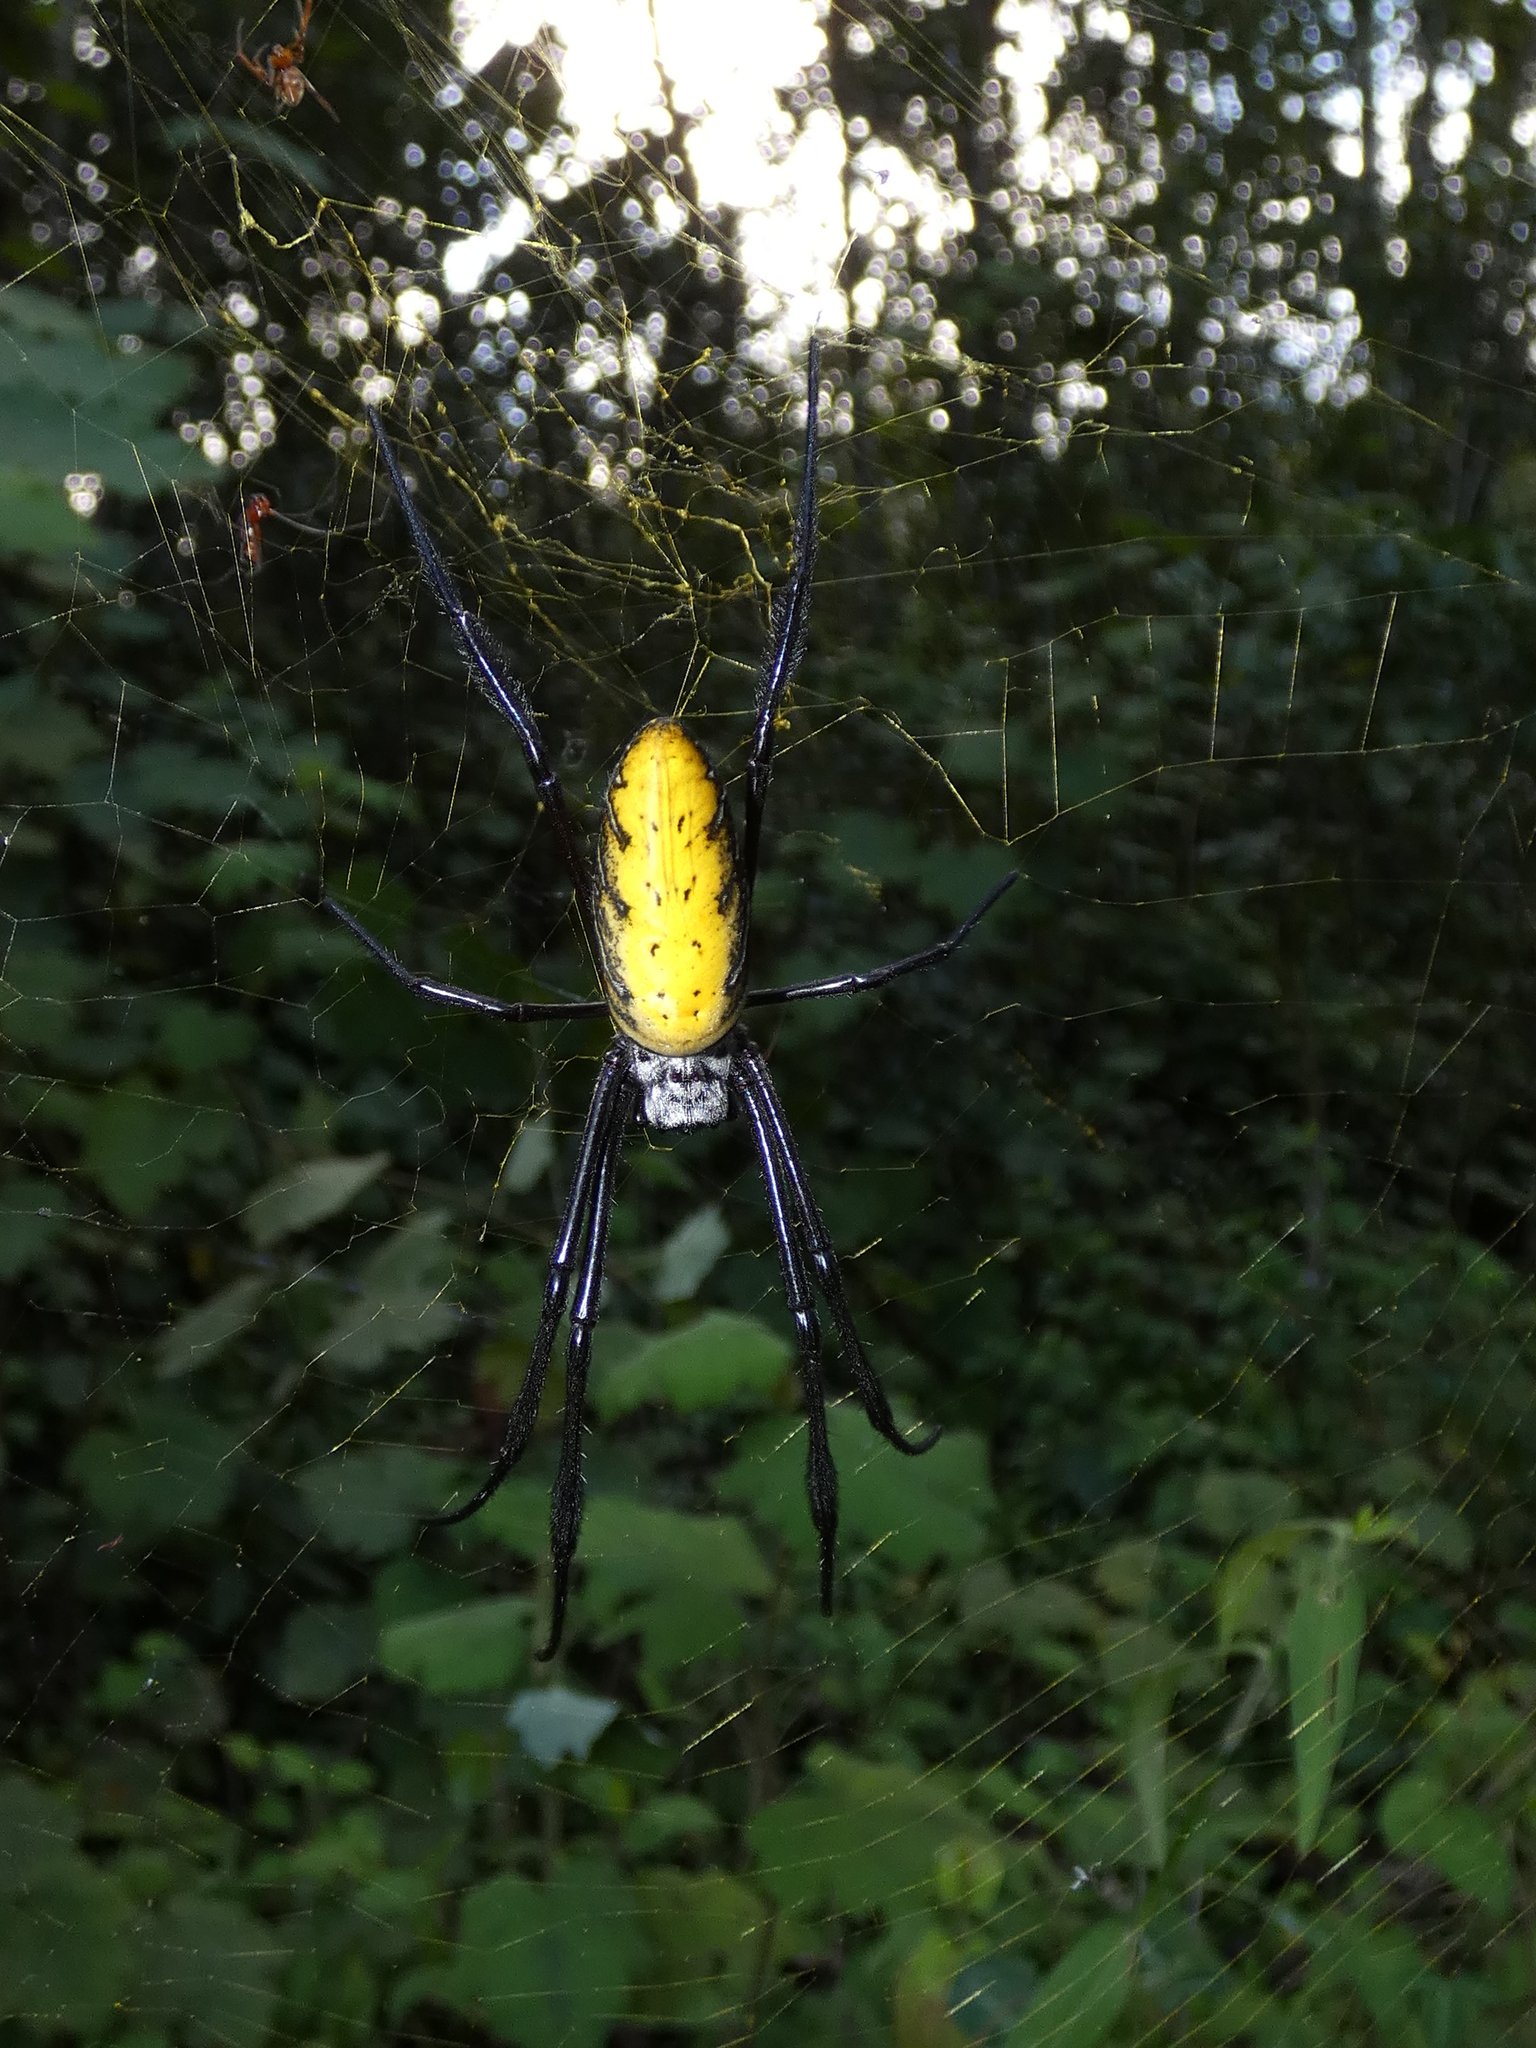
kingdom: Animalia
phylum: Arthropoda
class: Arachnida
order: Araneae
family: Araneidae
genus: Trichonephila
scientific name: Trichonephila inaurata
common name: Red-legged golden orb weaver
